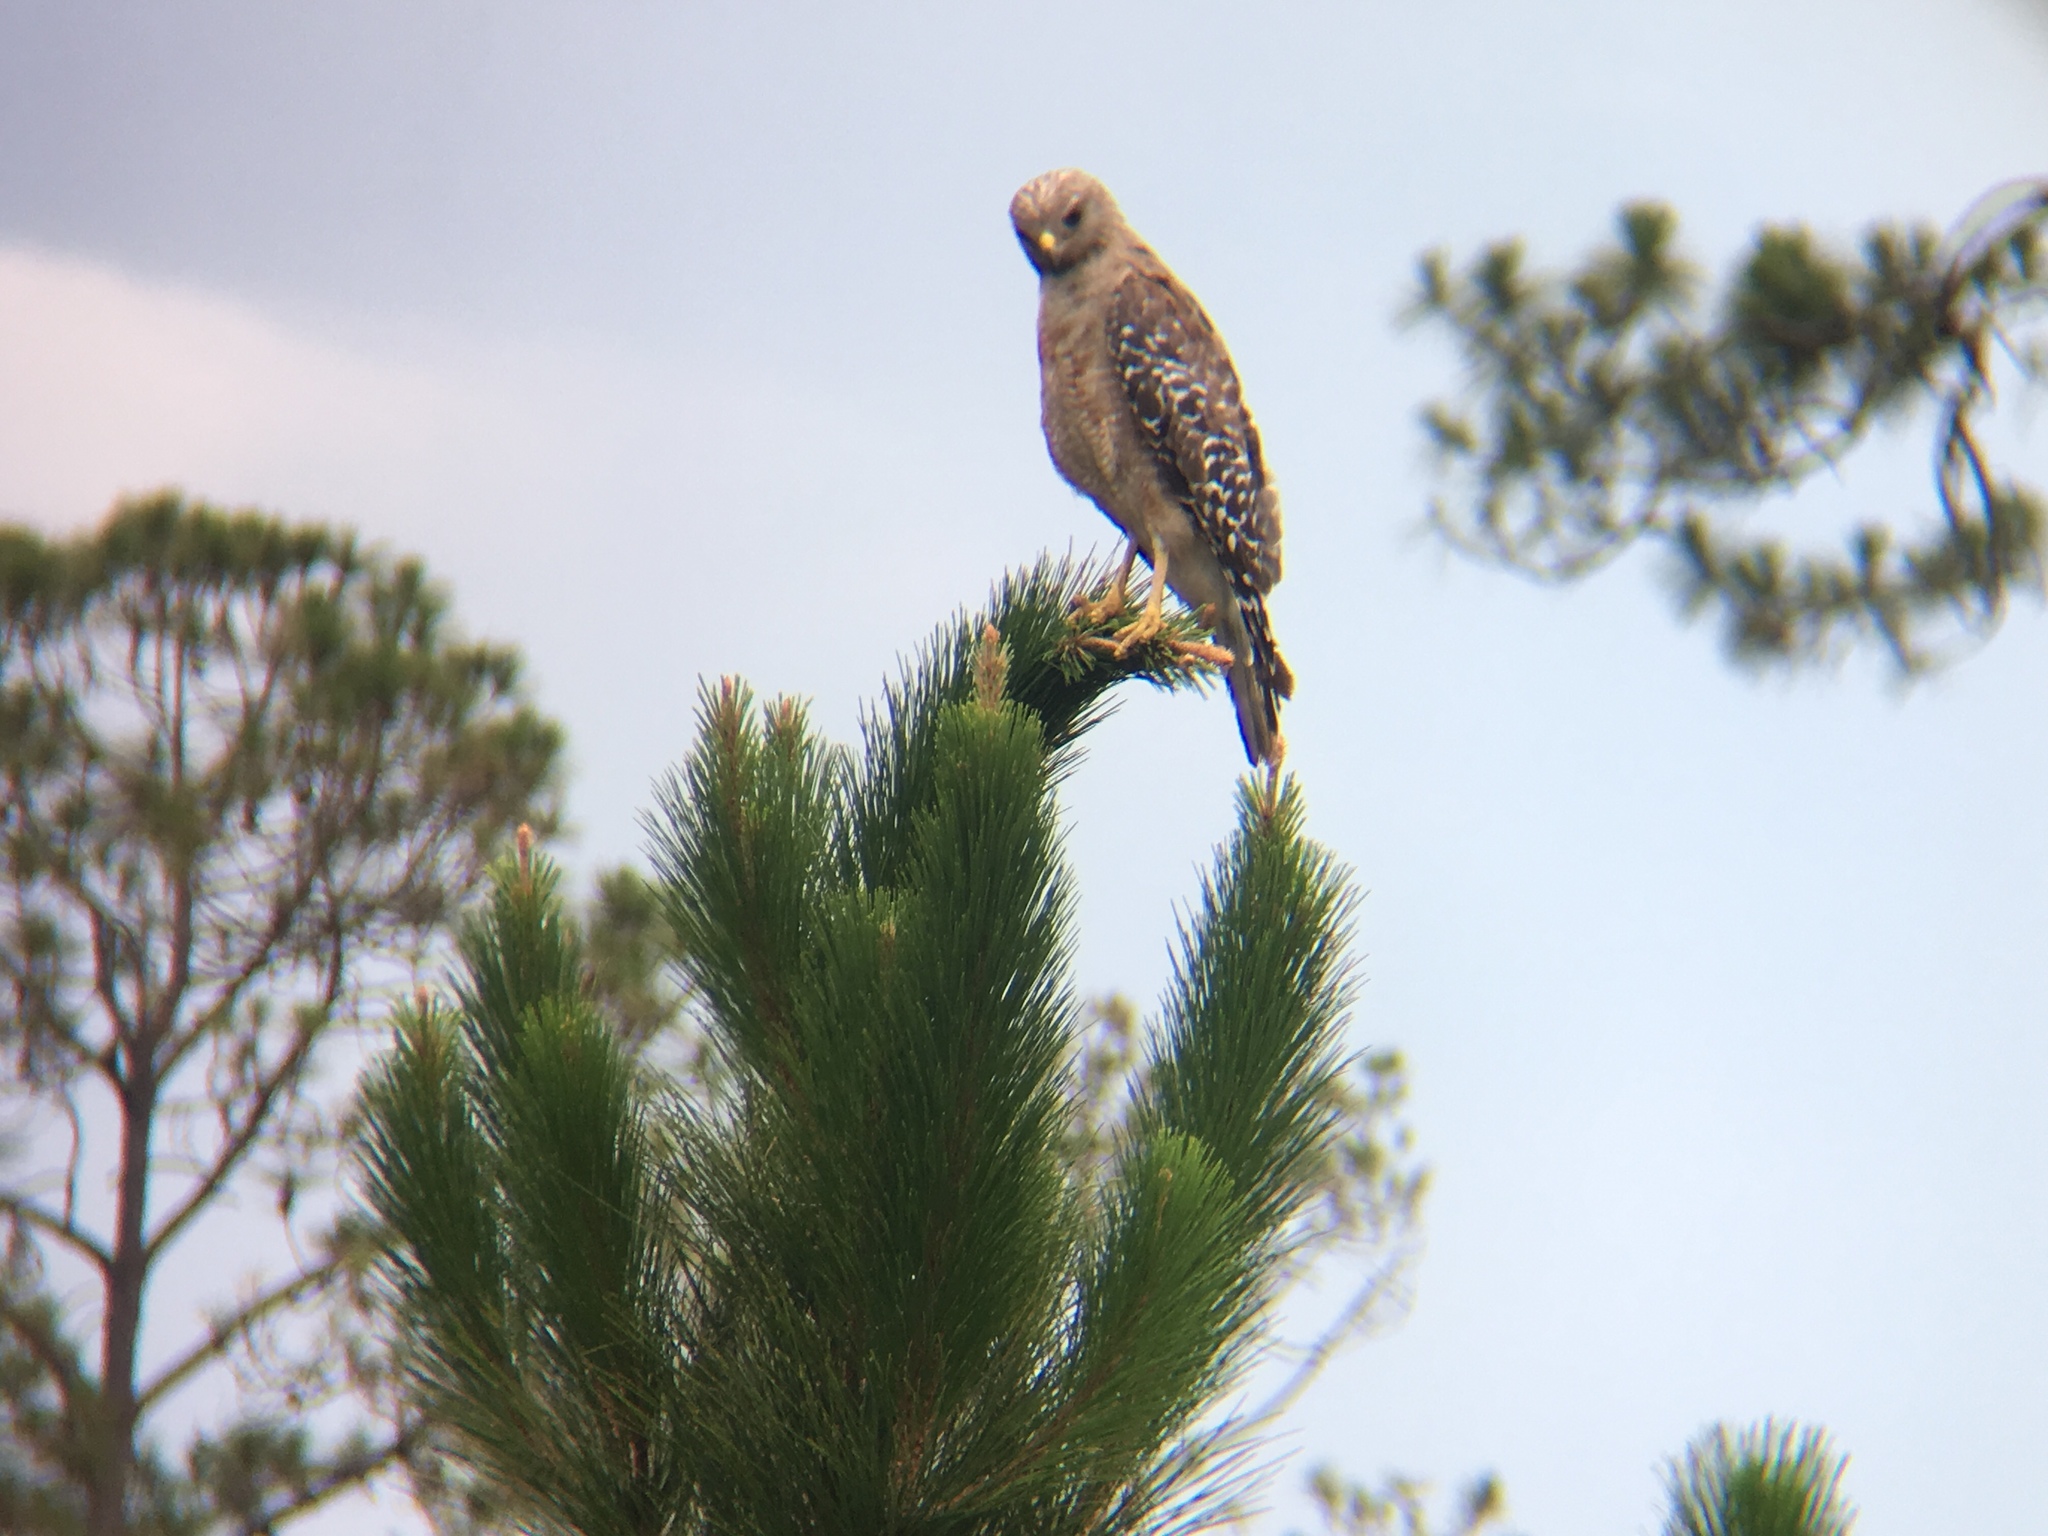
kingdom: Animalia
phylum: Chordata
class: Aves
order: Accipitriformes
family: Accipitridae
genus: Buteo
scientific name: Buteo lineatus
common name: Red-shouldered hawk
